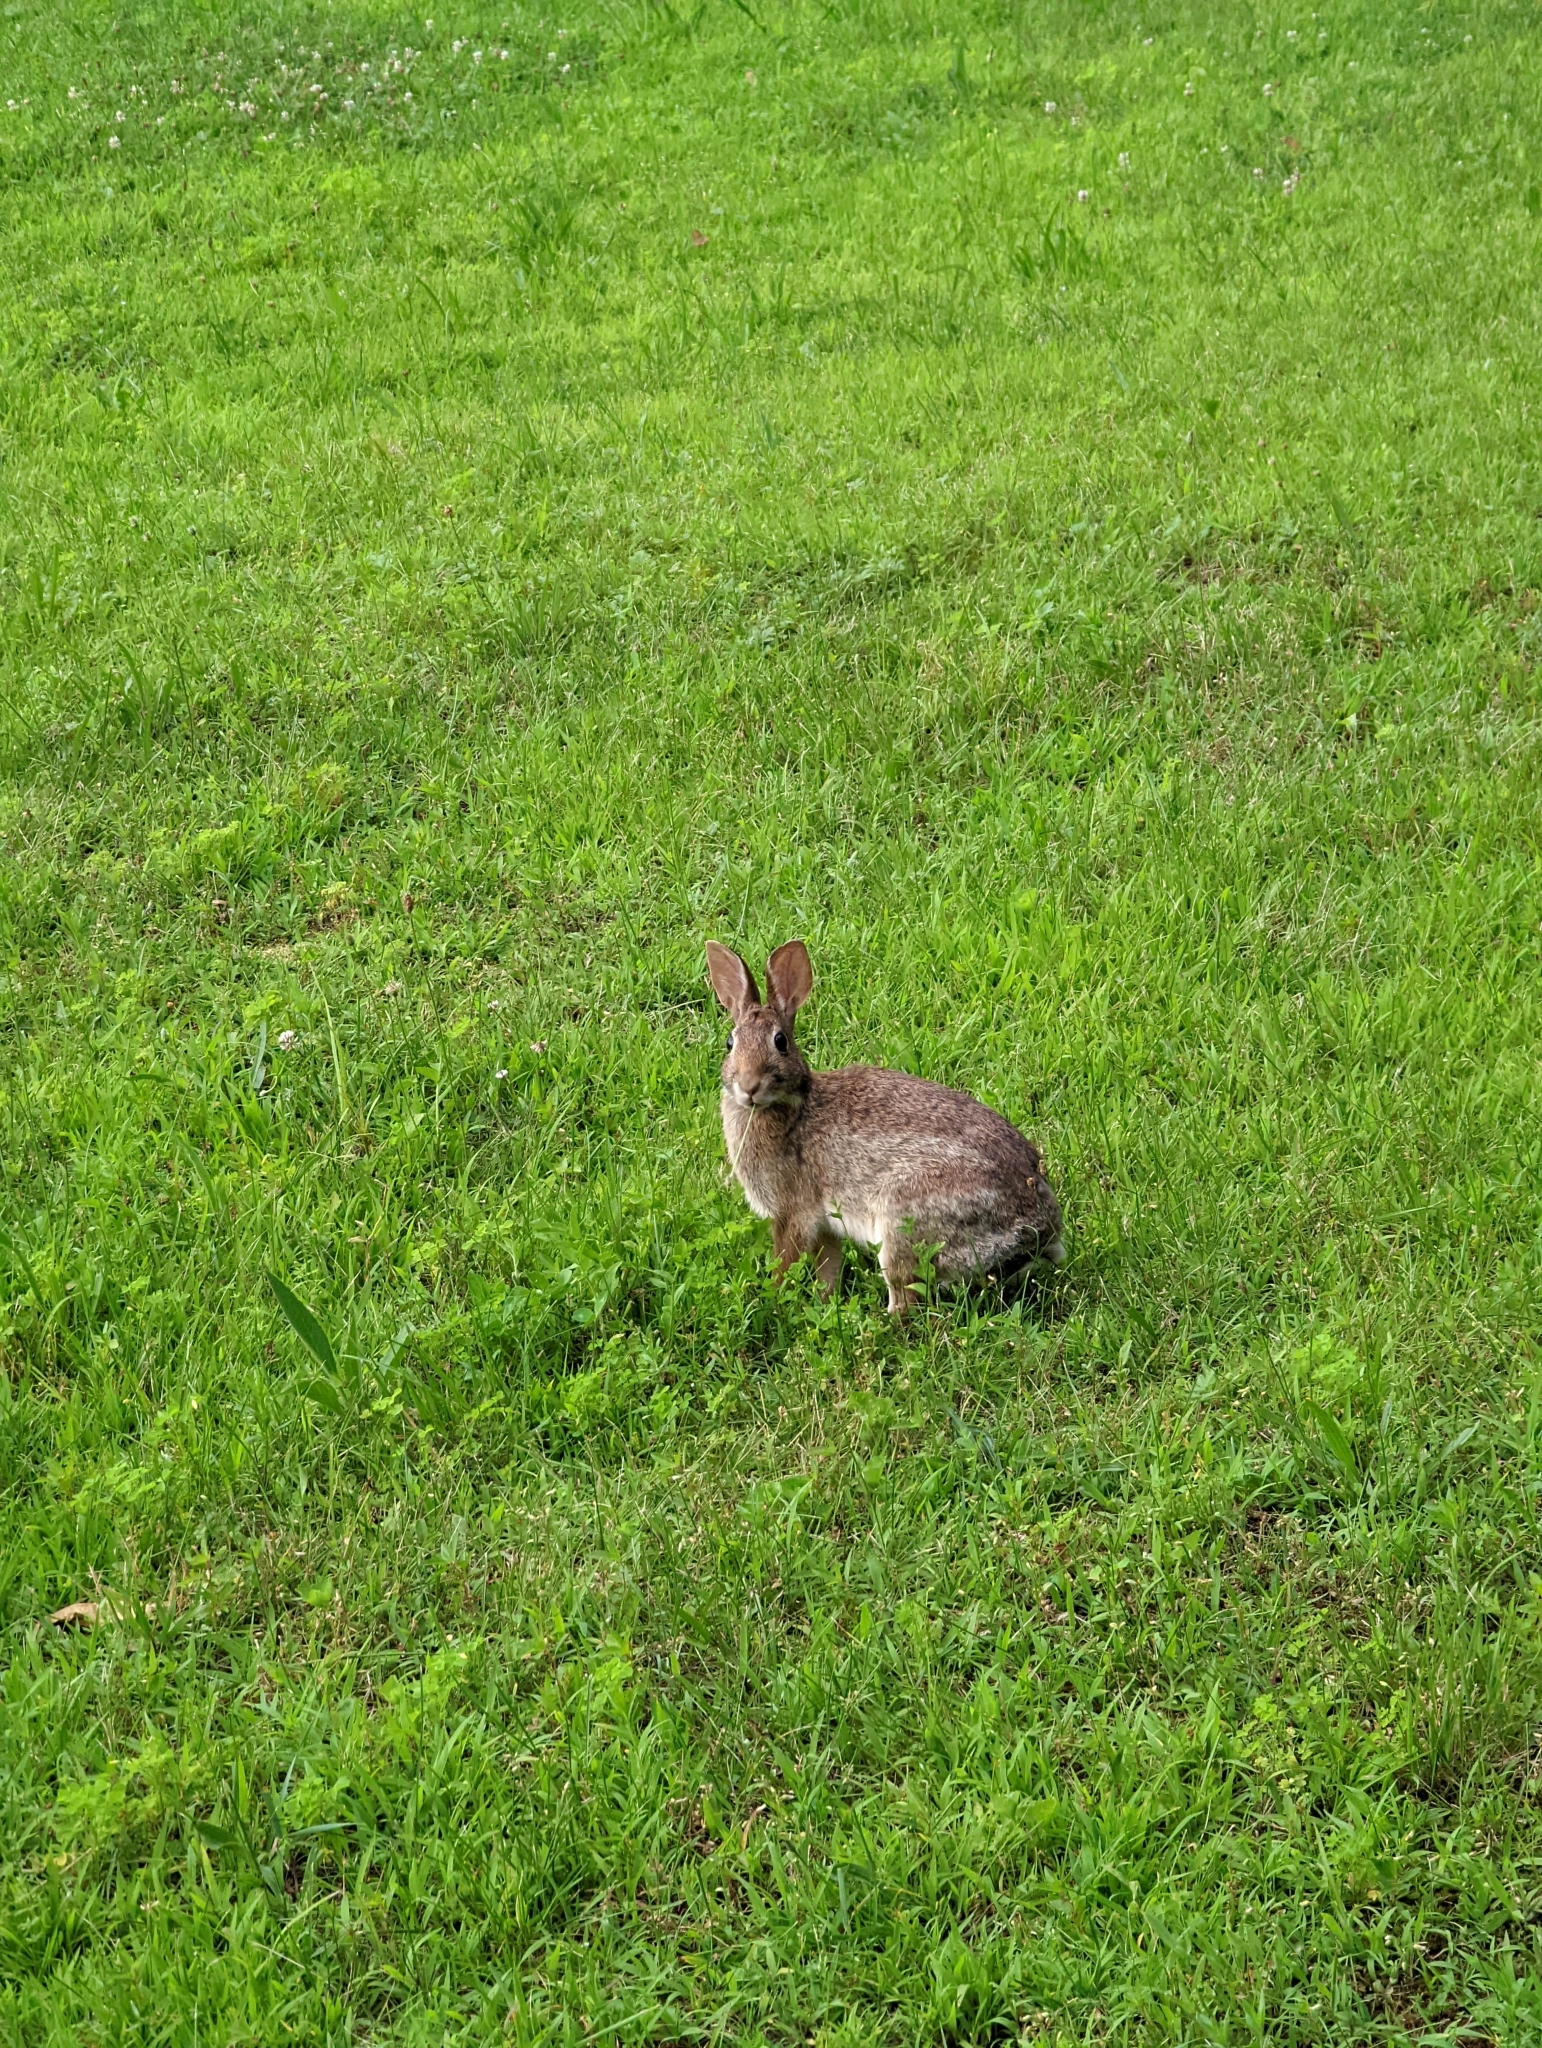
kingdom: Animalia
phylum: Chordata
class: Mammalia
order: Lagomorpha
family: Leporidae
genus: Sylvilagus
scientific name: Sylvilagus floridanus
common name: Eastern cottontail
